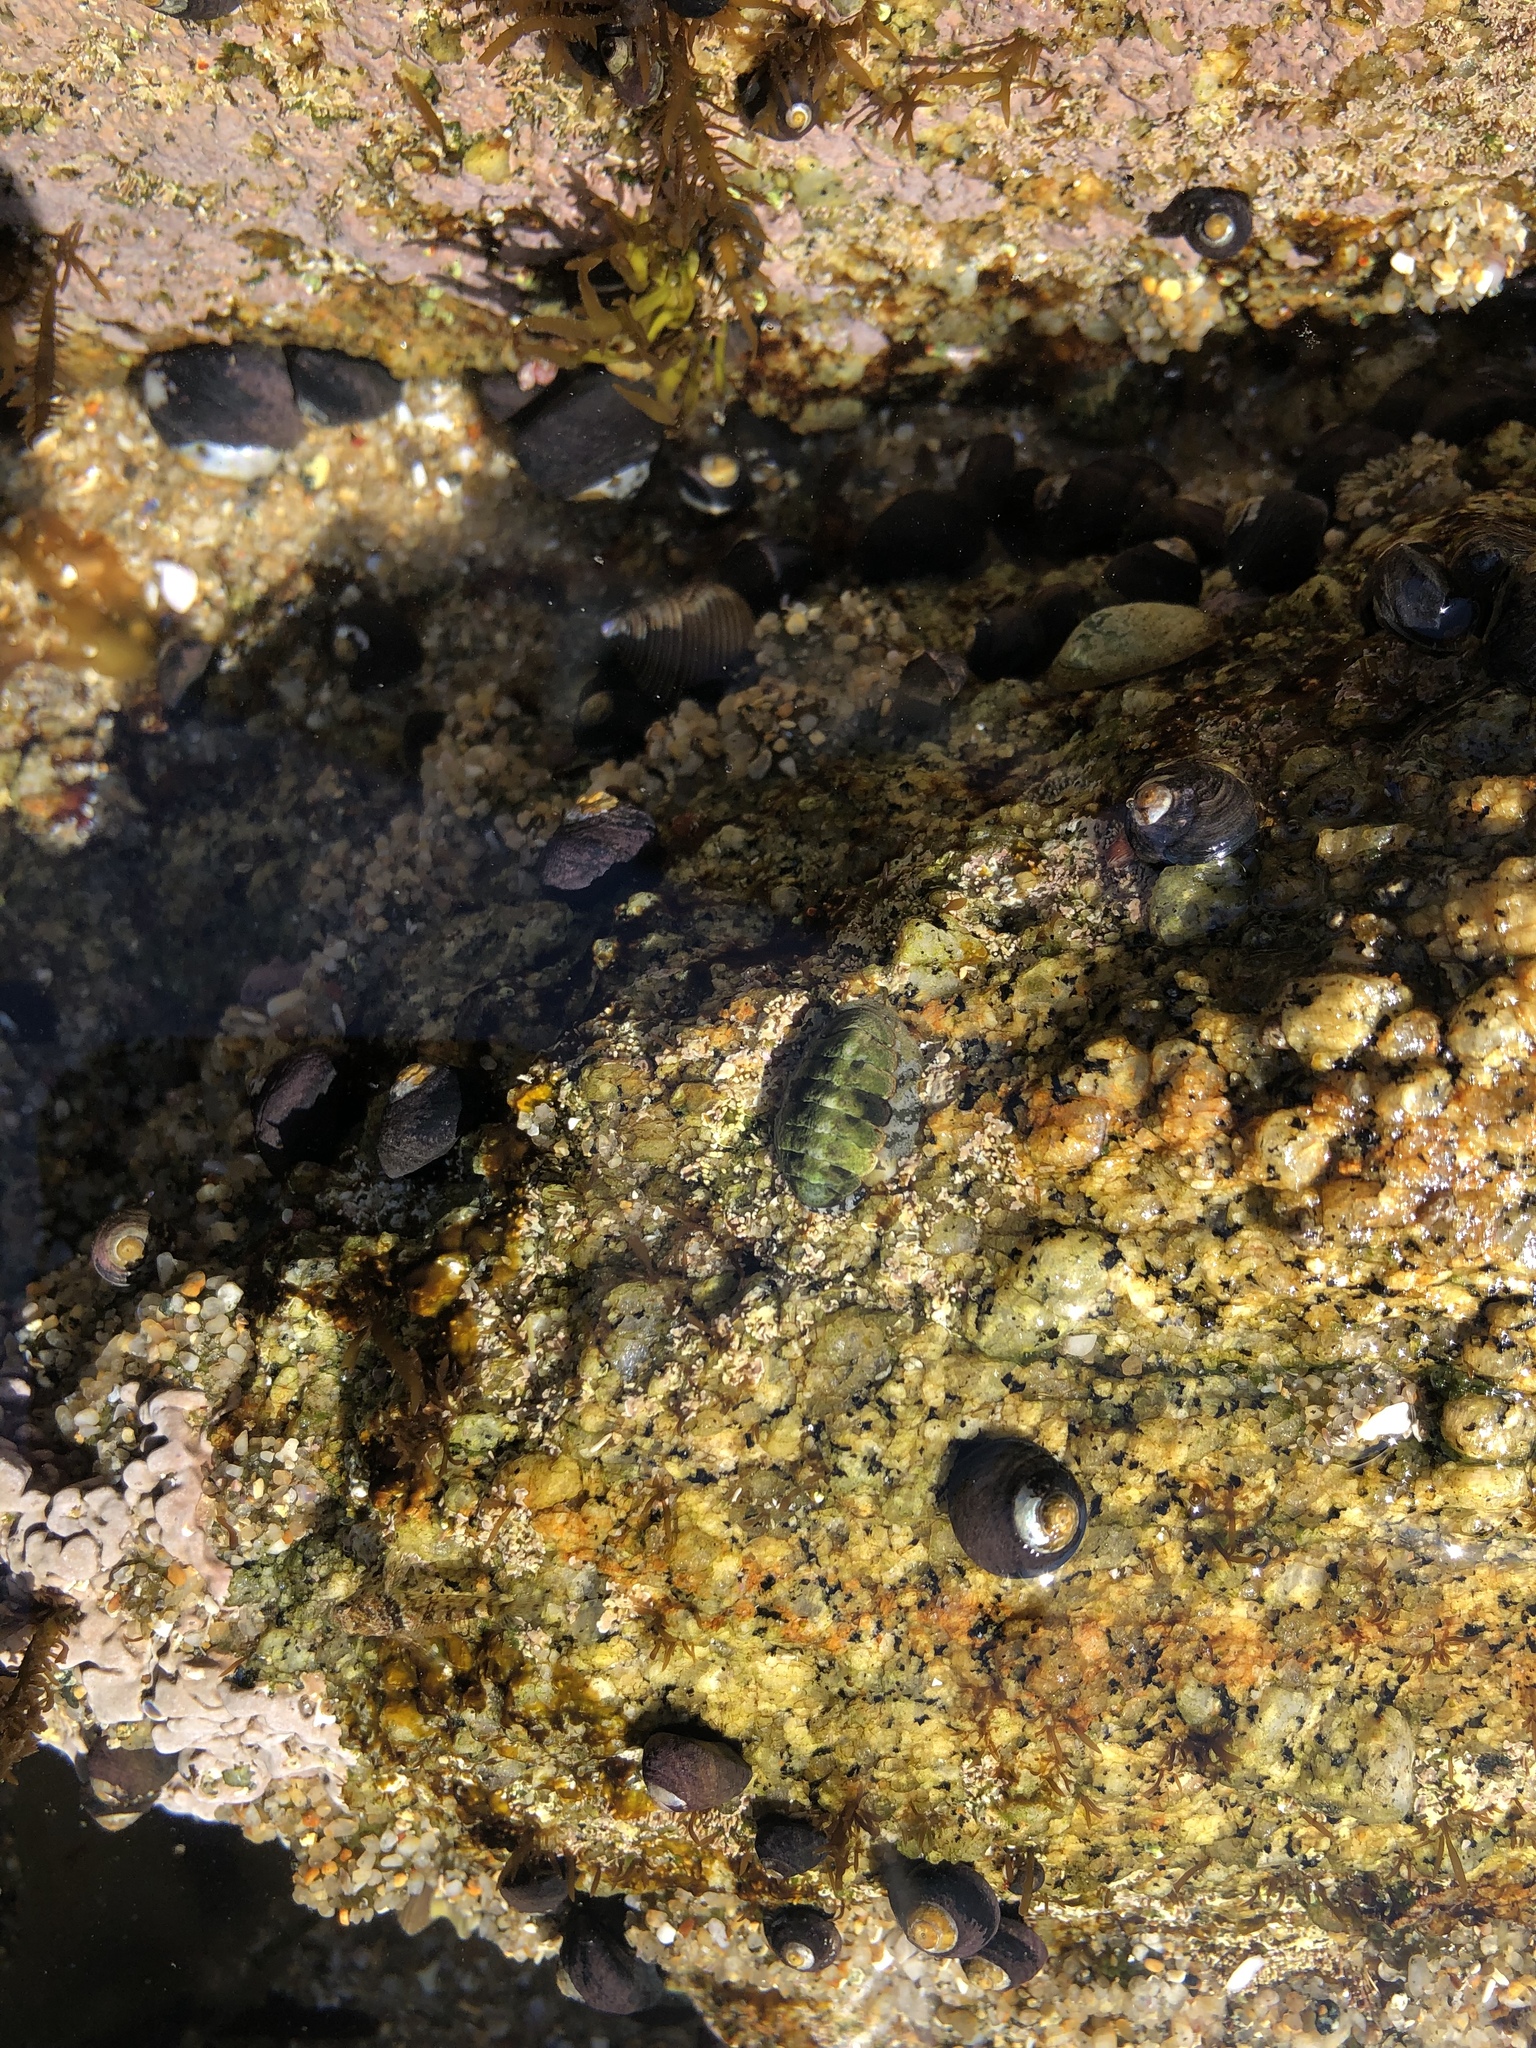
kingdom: Animalia
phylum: Mollusca
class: Polyplacophora
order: Chitonida
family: Tonicellidae
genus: Cyanoplax
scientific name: Cyanoplax hartwegii
